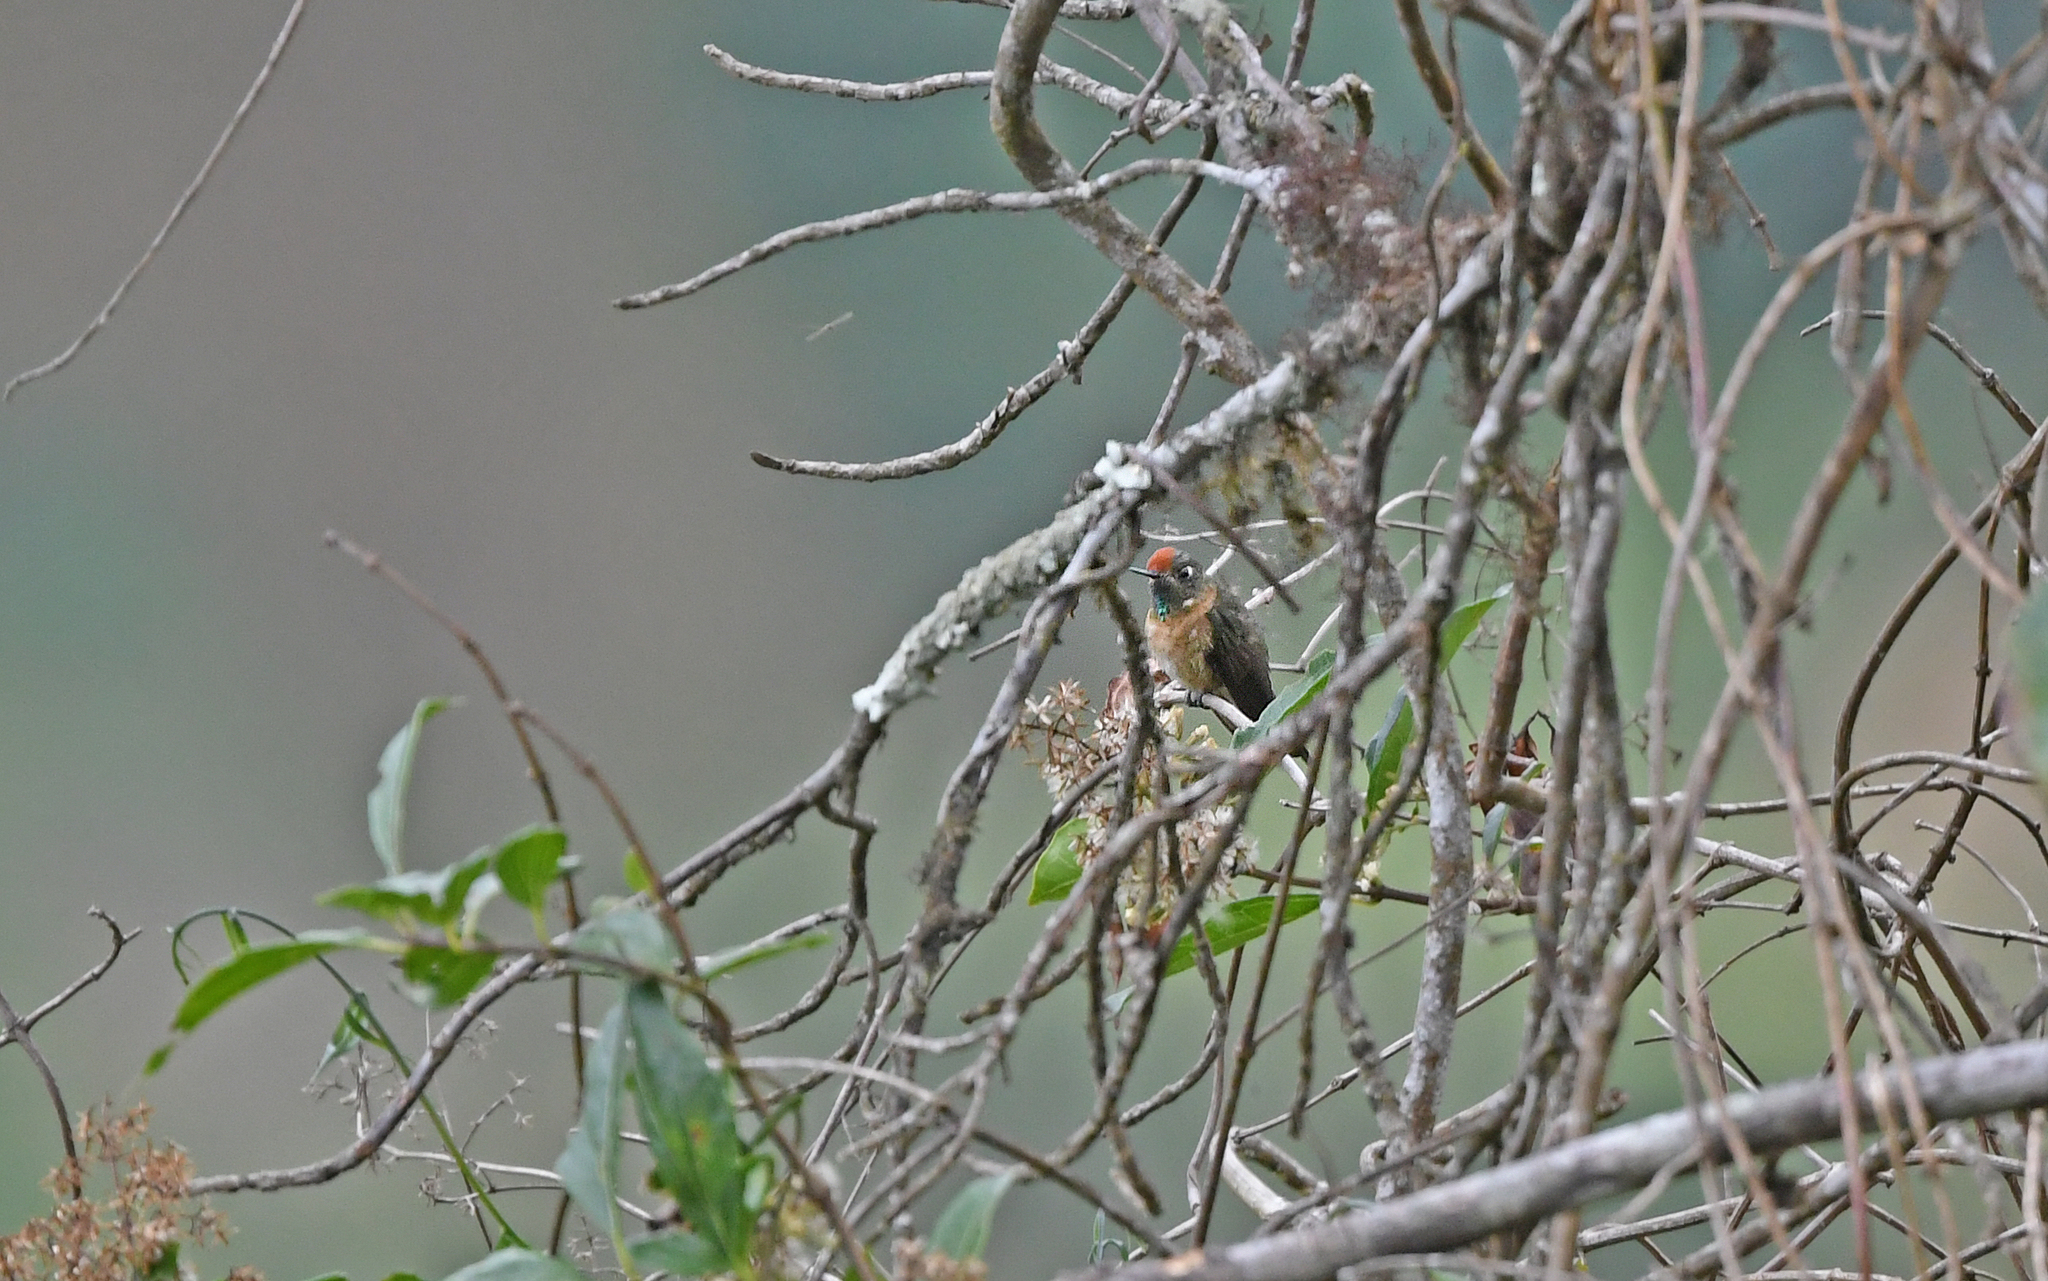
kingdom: Animalia
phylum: Chordata
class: Aves
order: Apodiformes
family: Trochilidae
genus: Chalcostigma
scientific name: Chalcostigma ruficeps
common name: Rufous-capped thornbill
